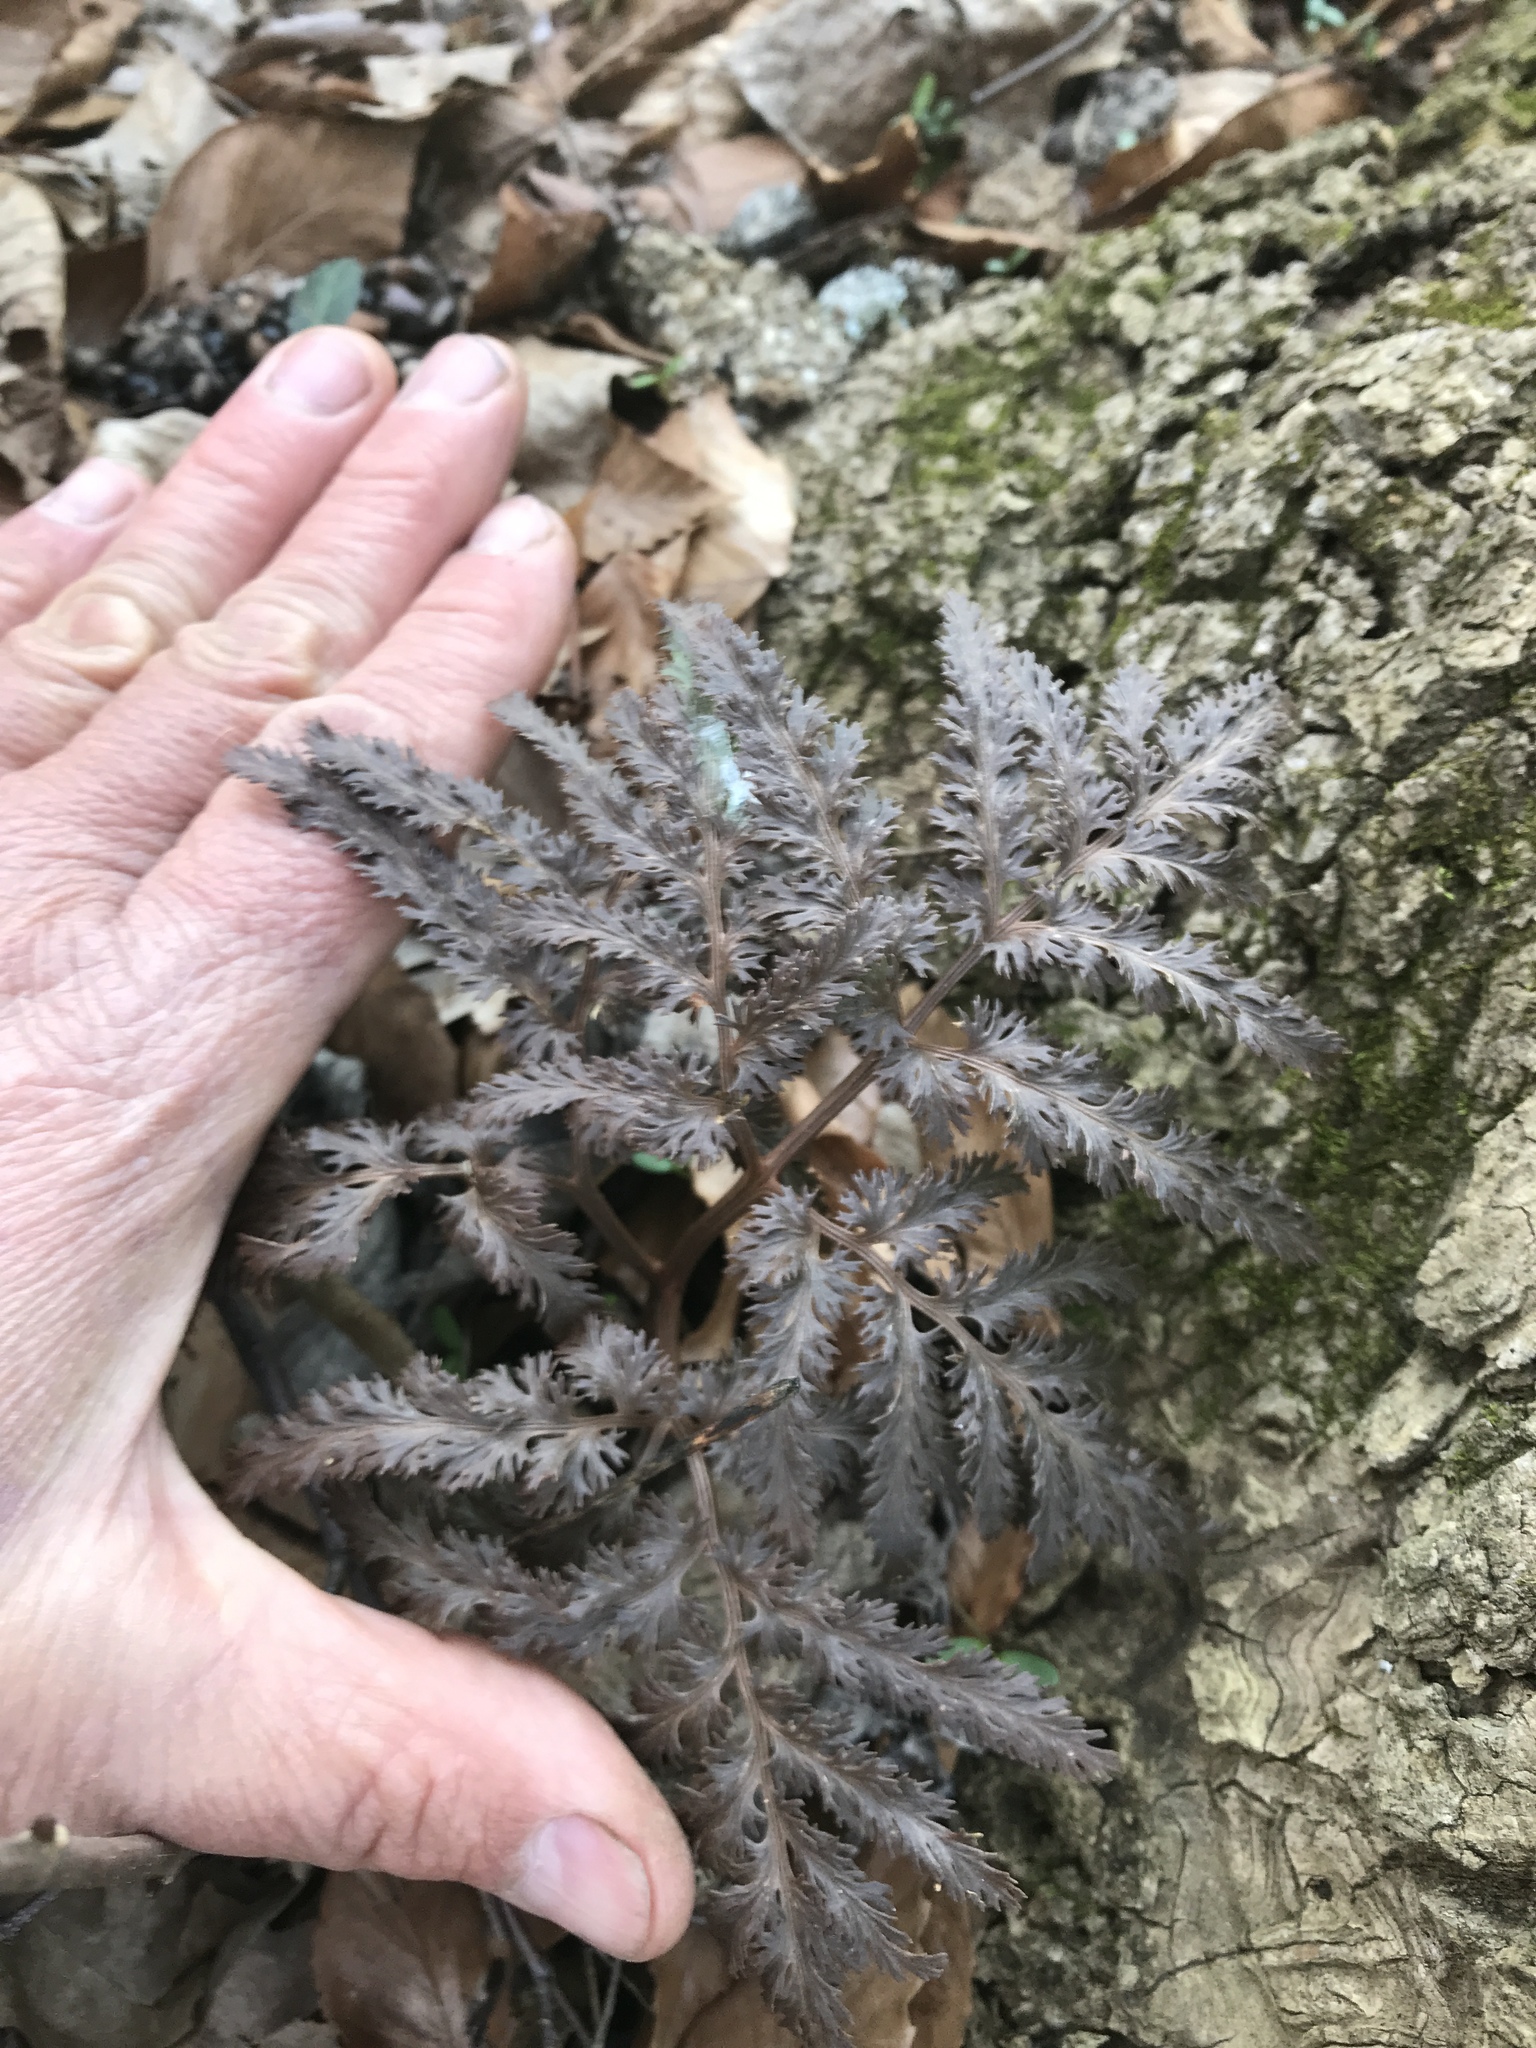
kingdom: Plantae
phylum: Tracheophyta
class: Polypodiopsida
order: Ophioglossales
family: Ophioglossaceae
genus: Sceptridium
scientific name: Sceptridium dissectum
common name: Cut-leaved grapefern
